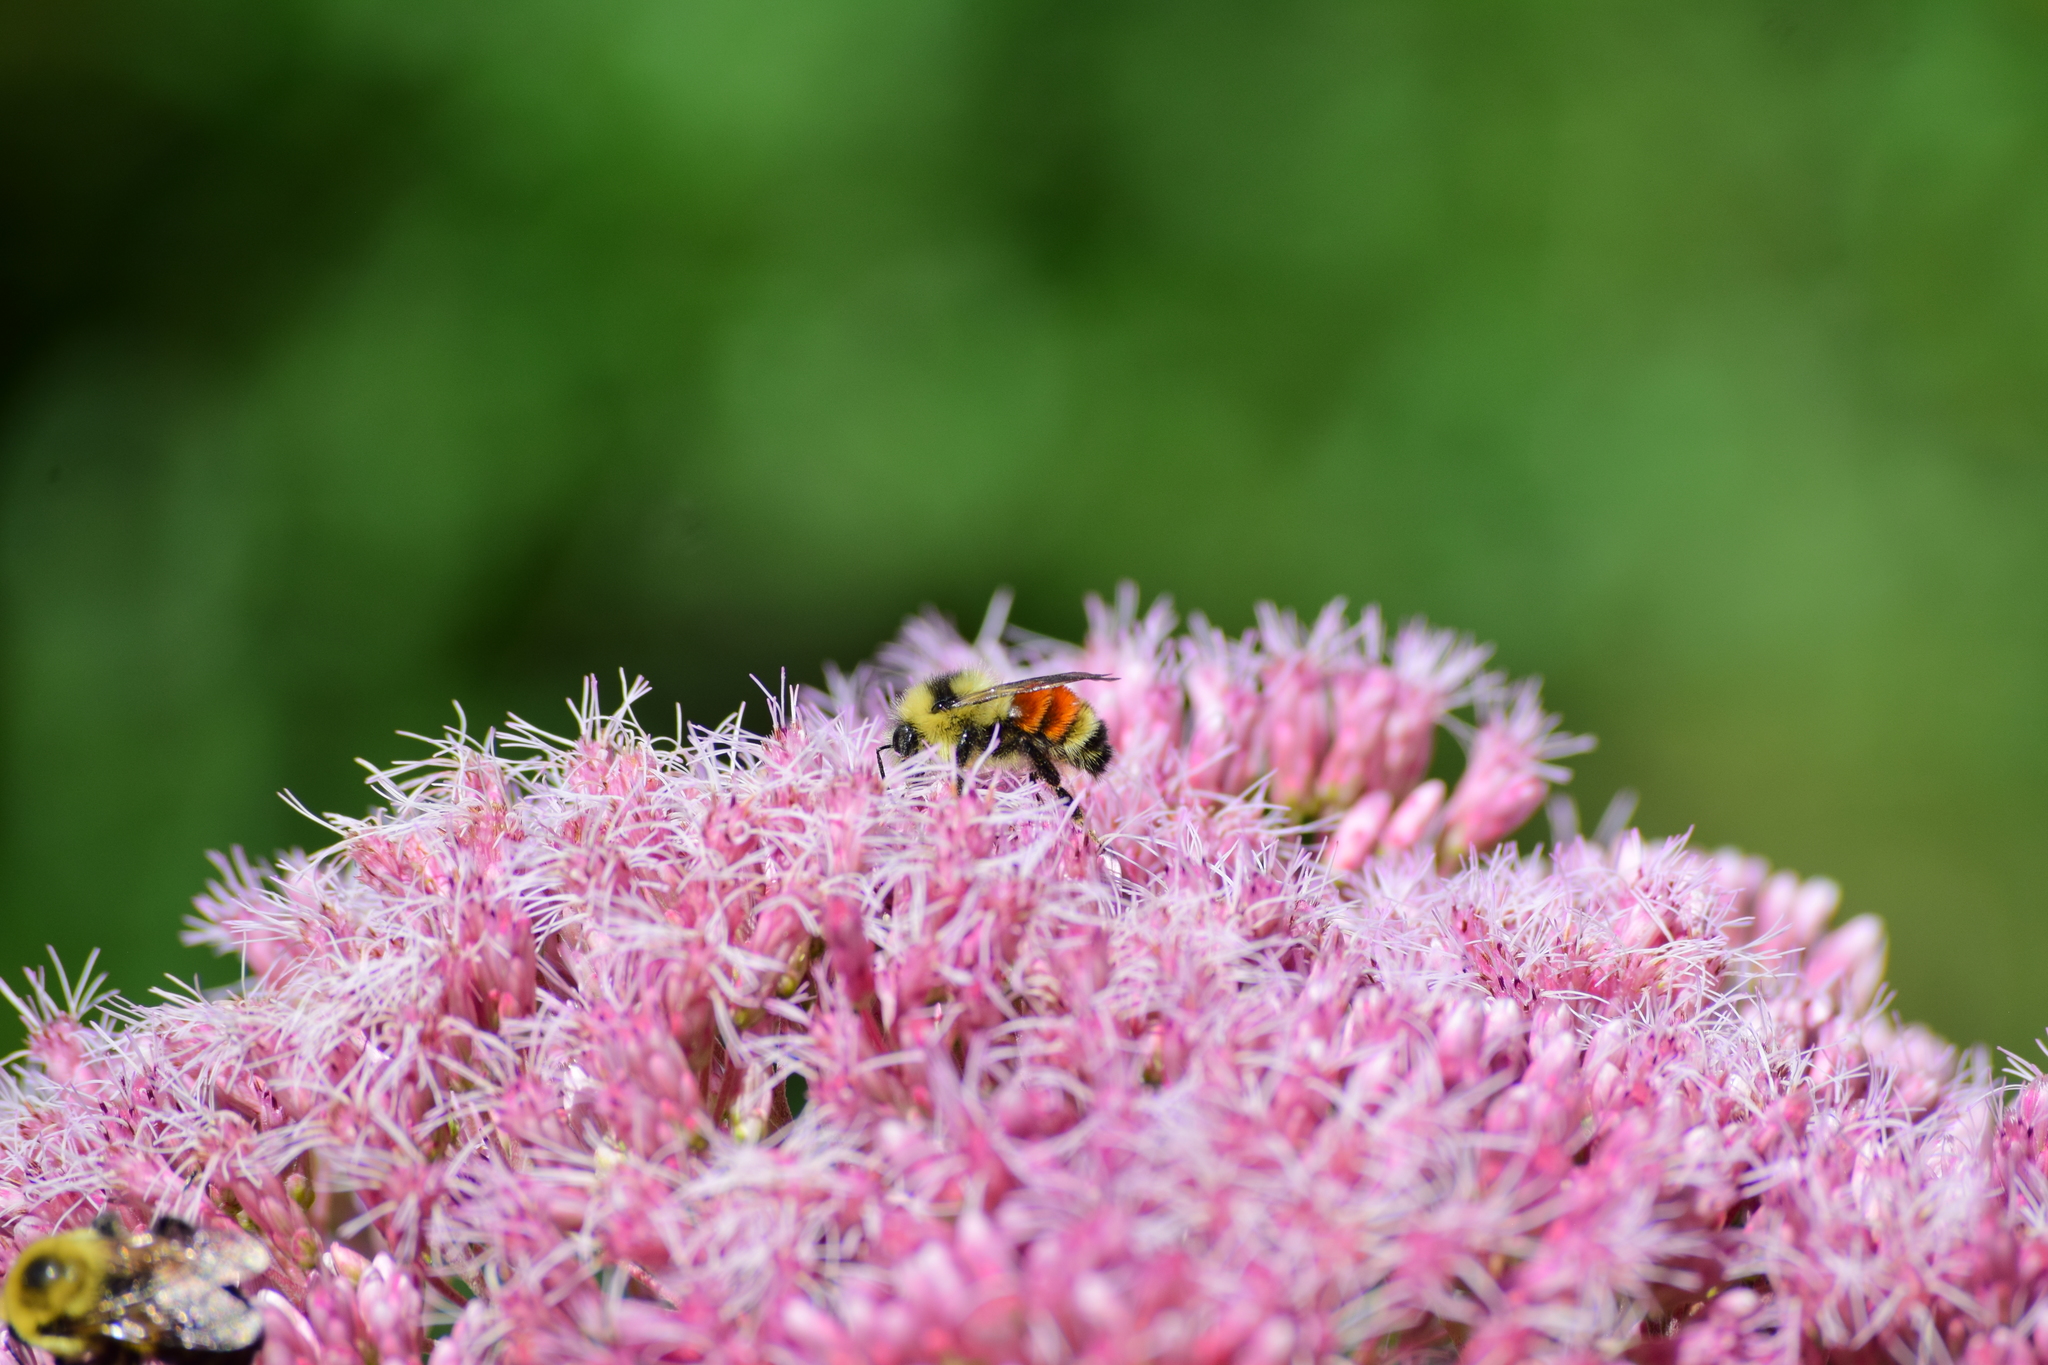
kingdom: Animalia
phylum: Arthropoda
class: Insecta
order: Hymenoptera
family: Apidae
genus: Bombus
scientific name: Bombus ternarius
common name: Tri-colored bumble bee
